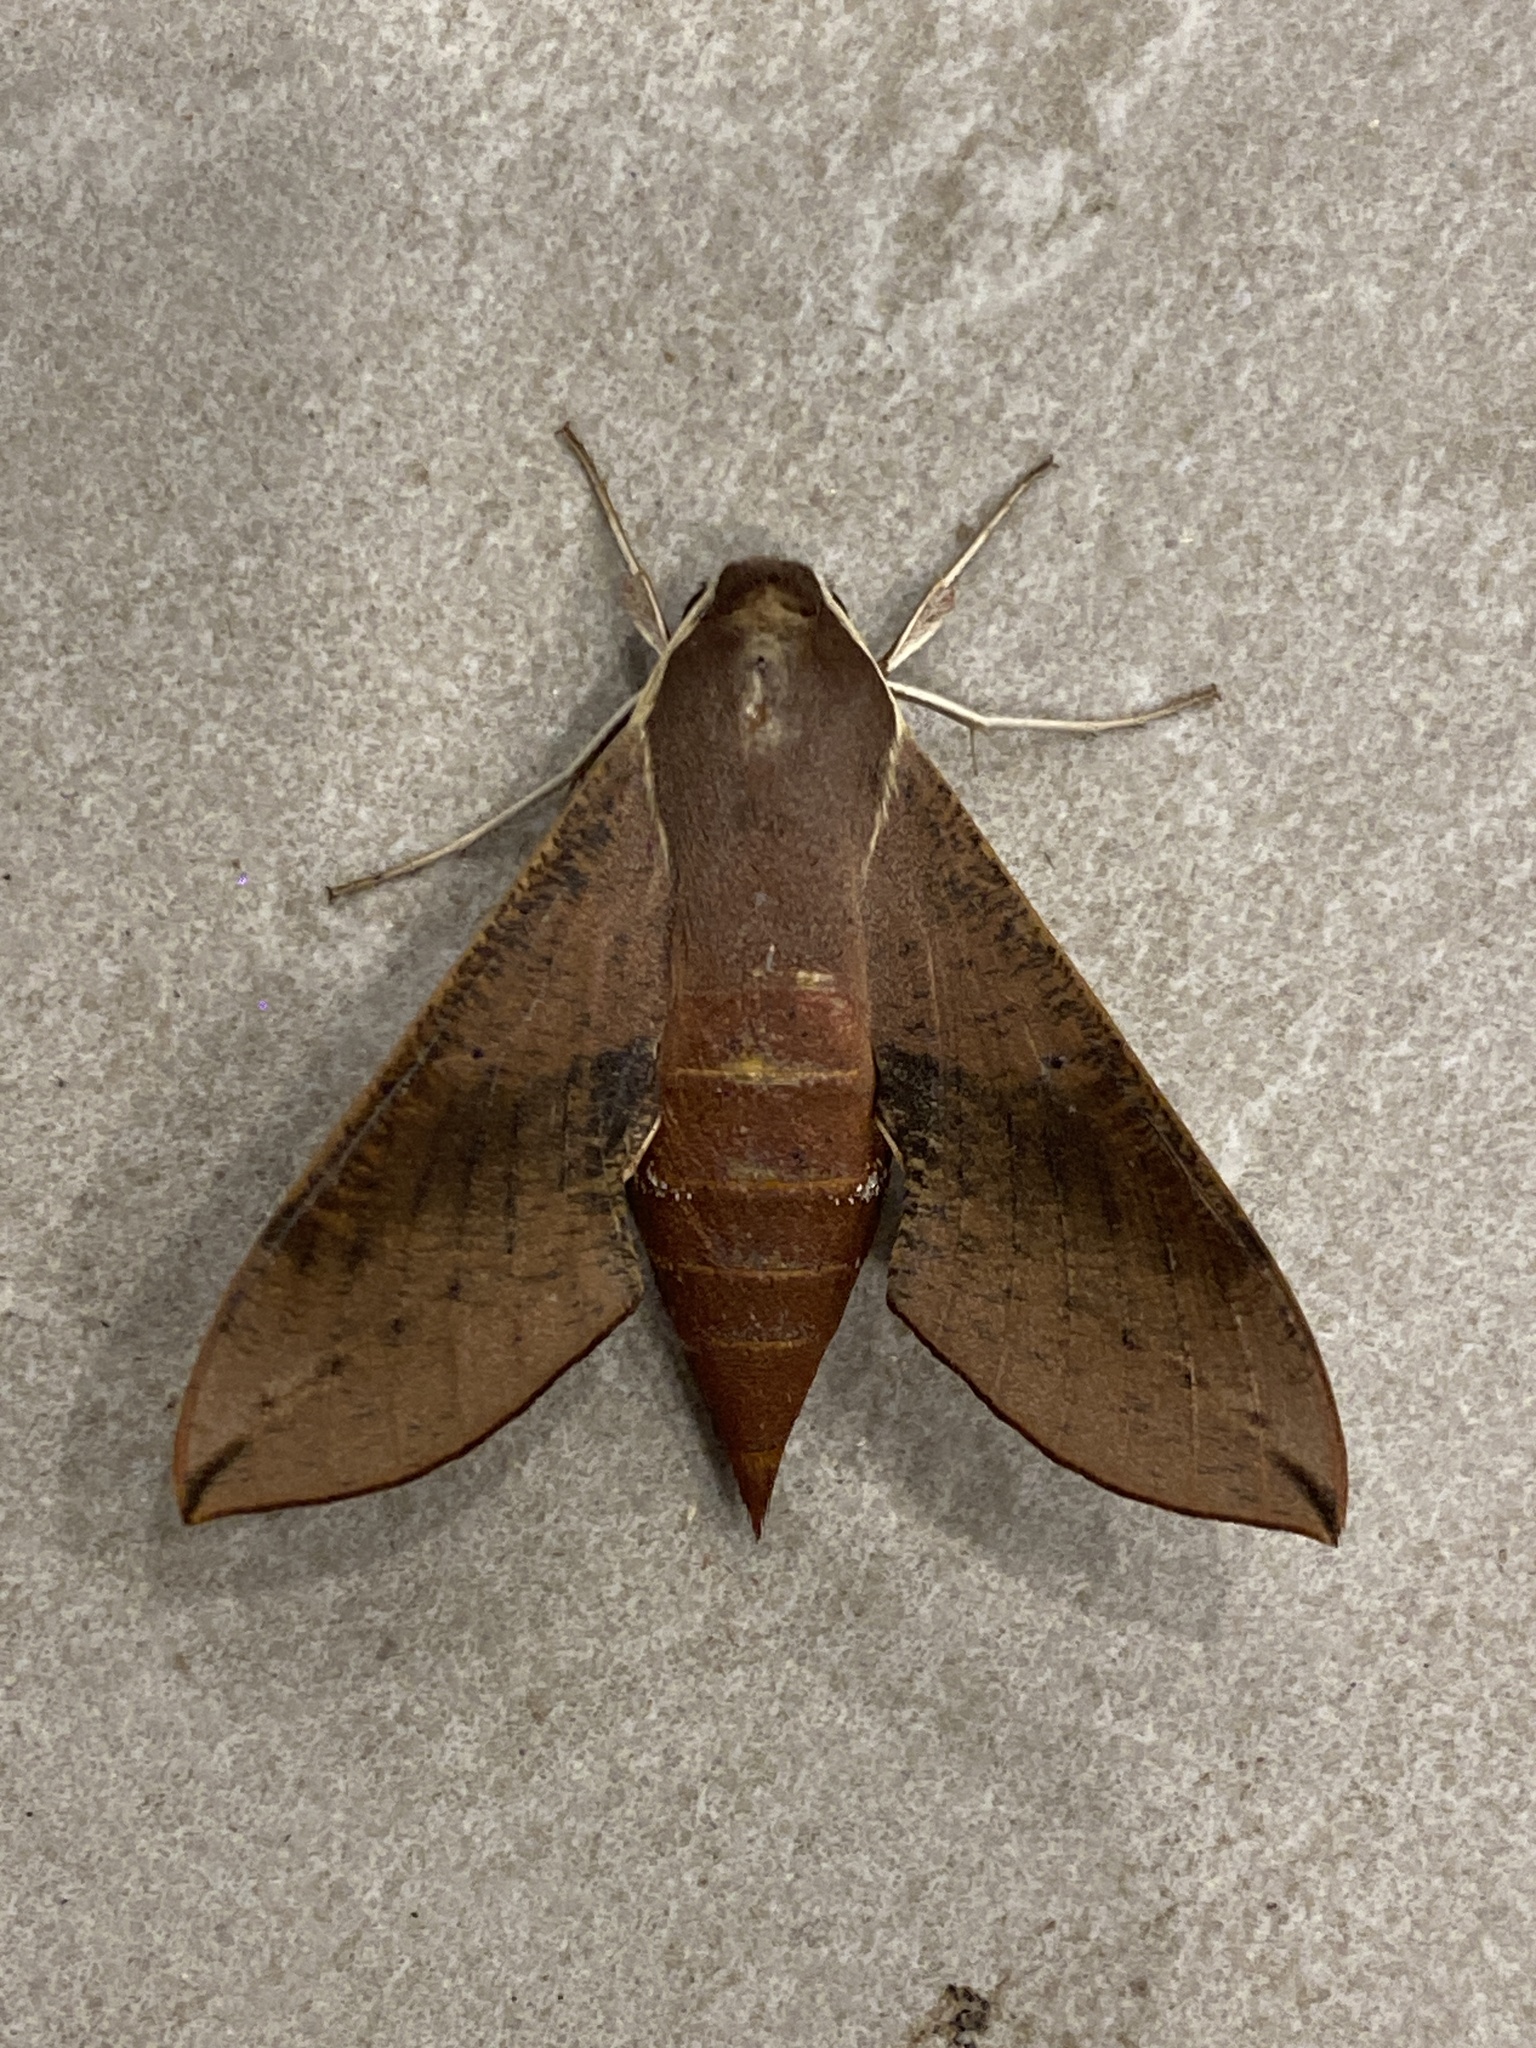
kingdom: Animalia
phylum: Arthropoda
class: Insecta
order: Lepidoptera
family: Sphingidae
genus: Hippotion
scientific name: Hippotion scrofa
